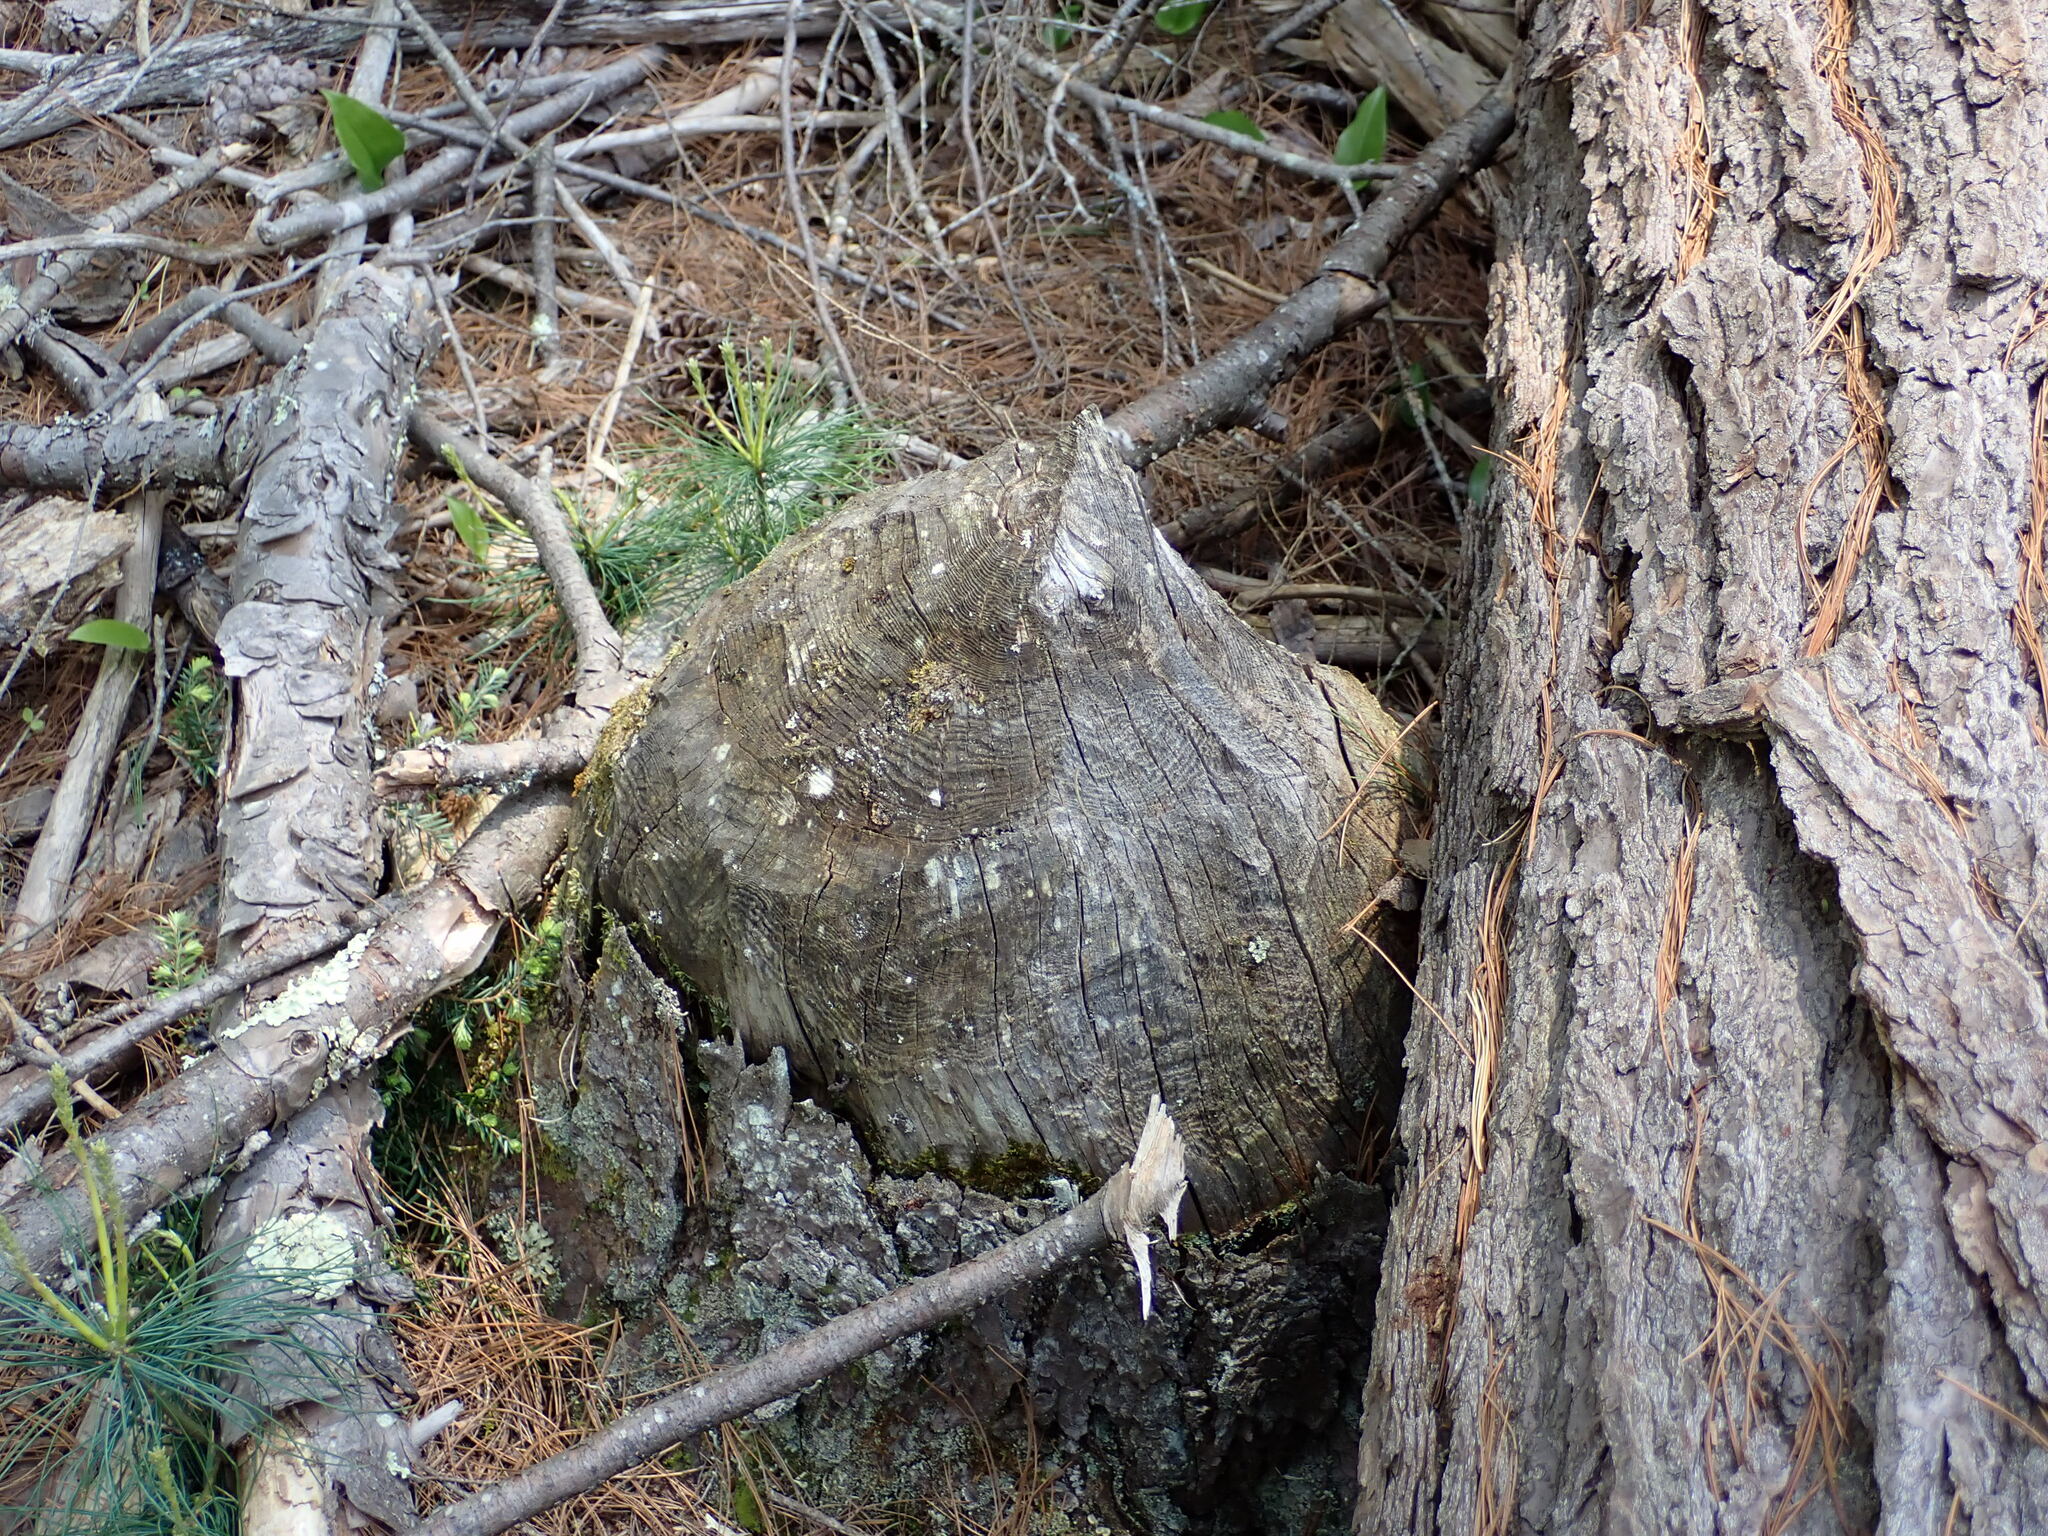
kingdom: Animalia
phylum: Chordata
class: Mammalia
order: Rodentia
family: Castoridae
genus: Castor
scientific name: Castor canadensis
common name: American beaver
